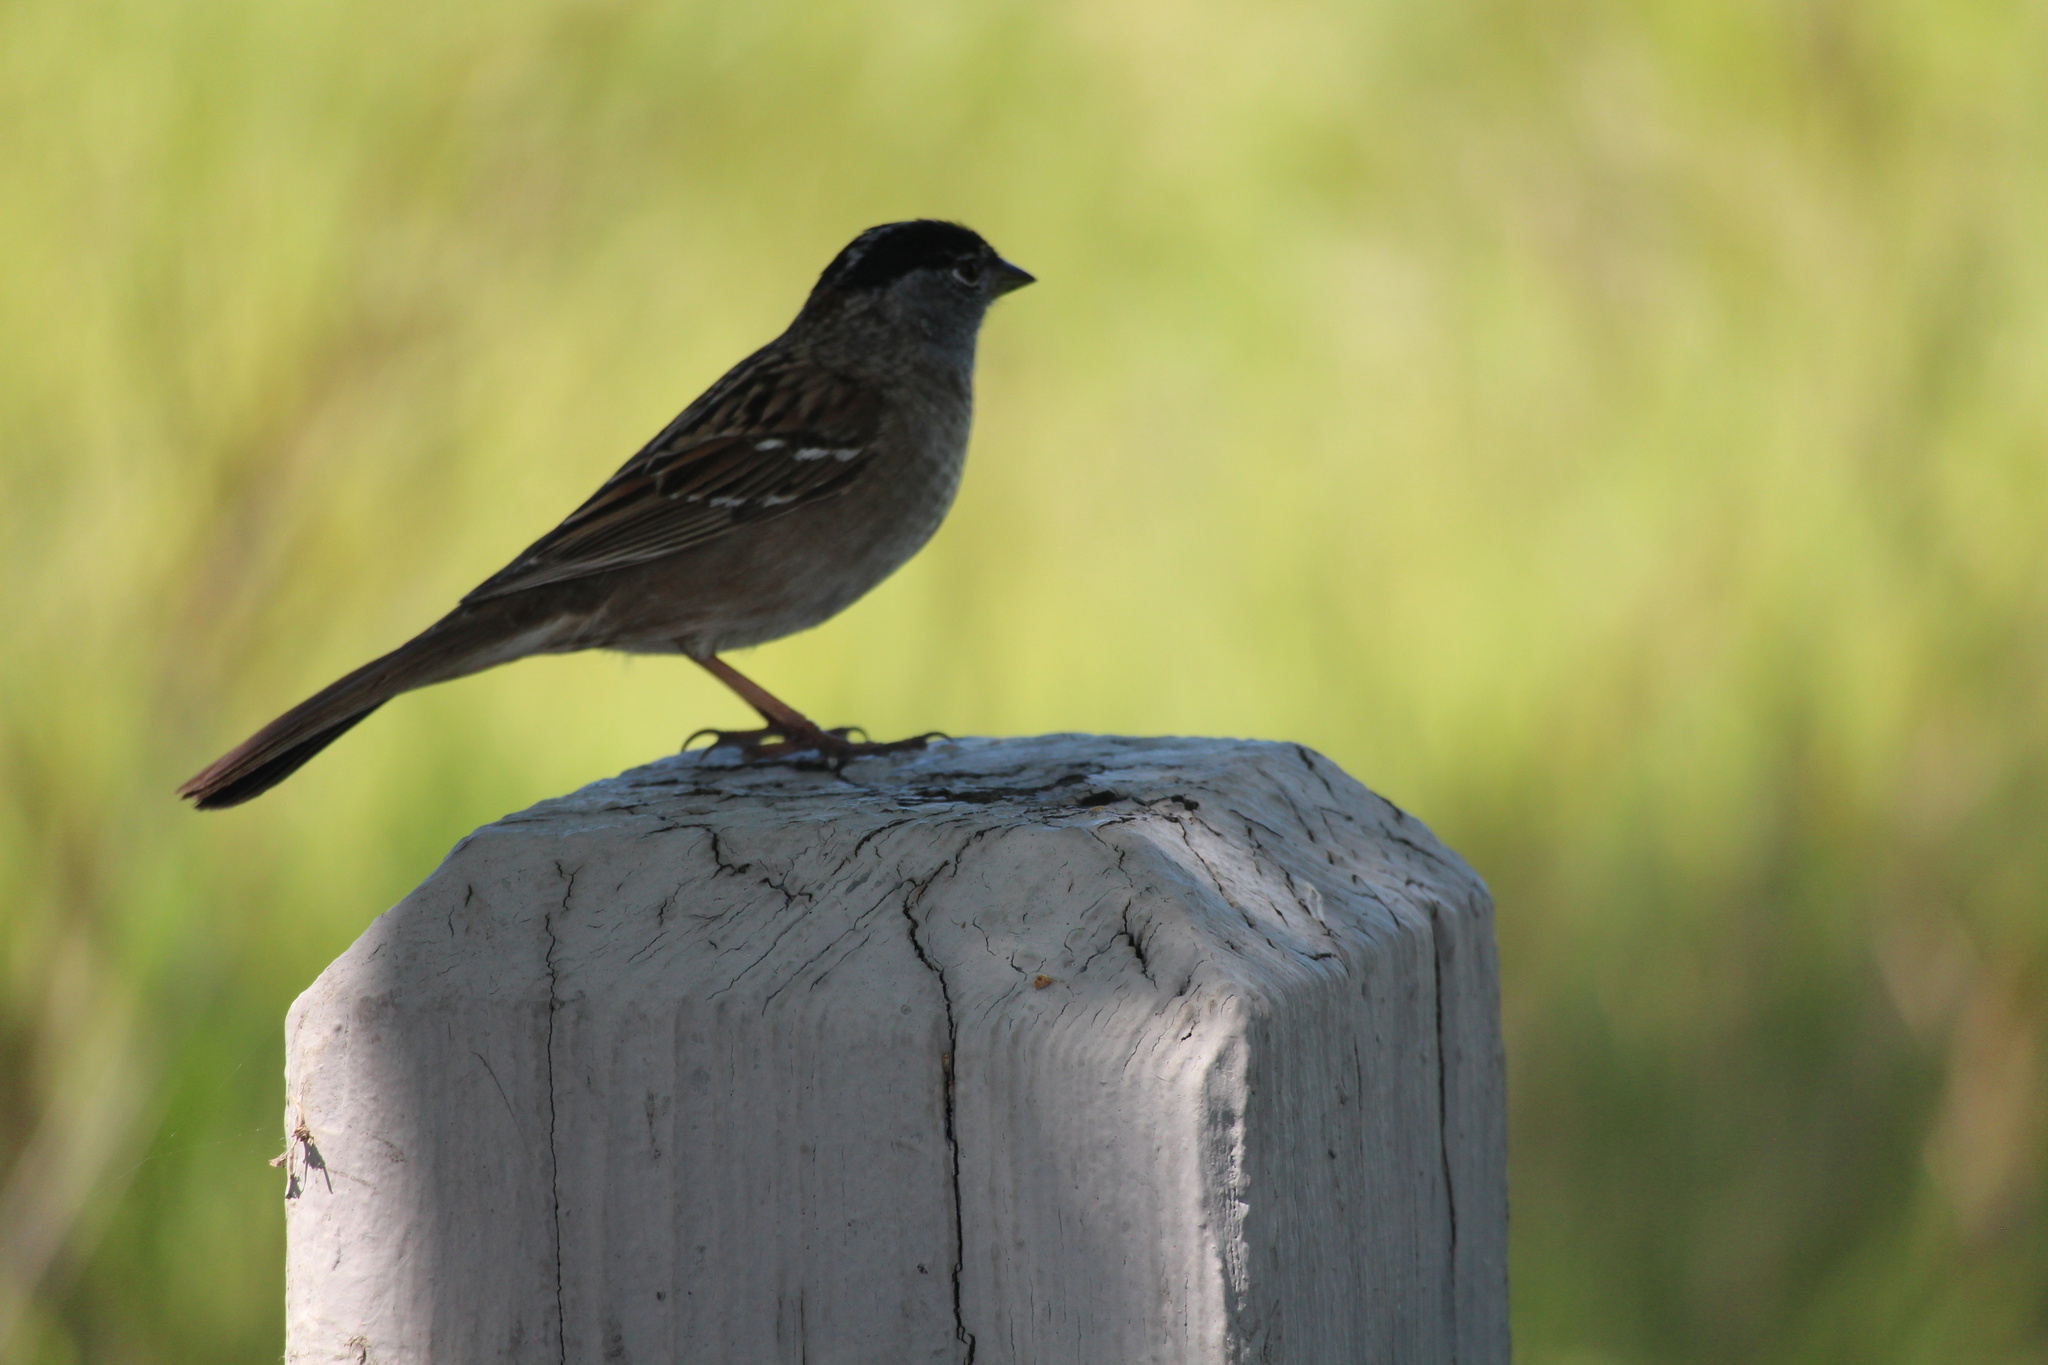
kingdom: Animalia
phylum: Chordata
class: Aves
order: Passeriformes
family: Passerellidae
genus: Zonotrichia
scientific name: Zonotrichia atricapilla
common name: Golden-crowned sparrow
